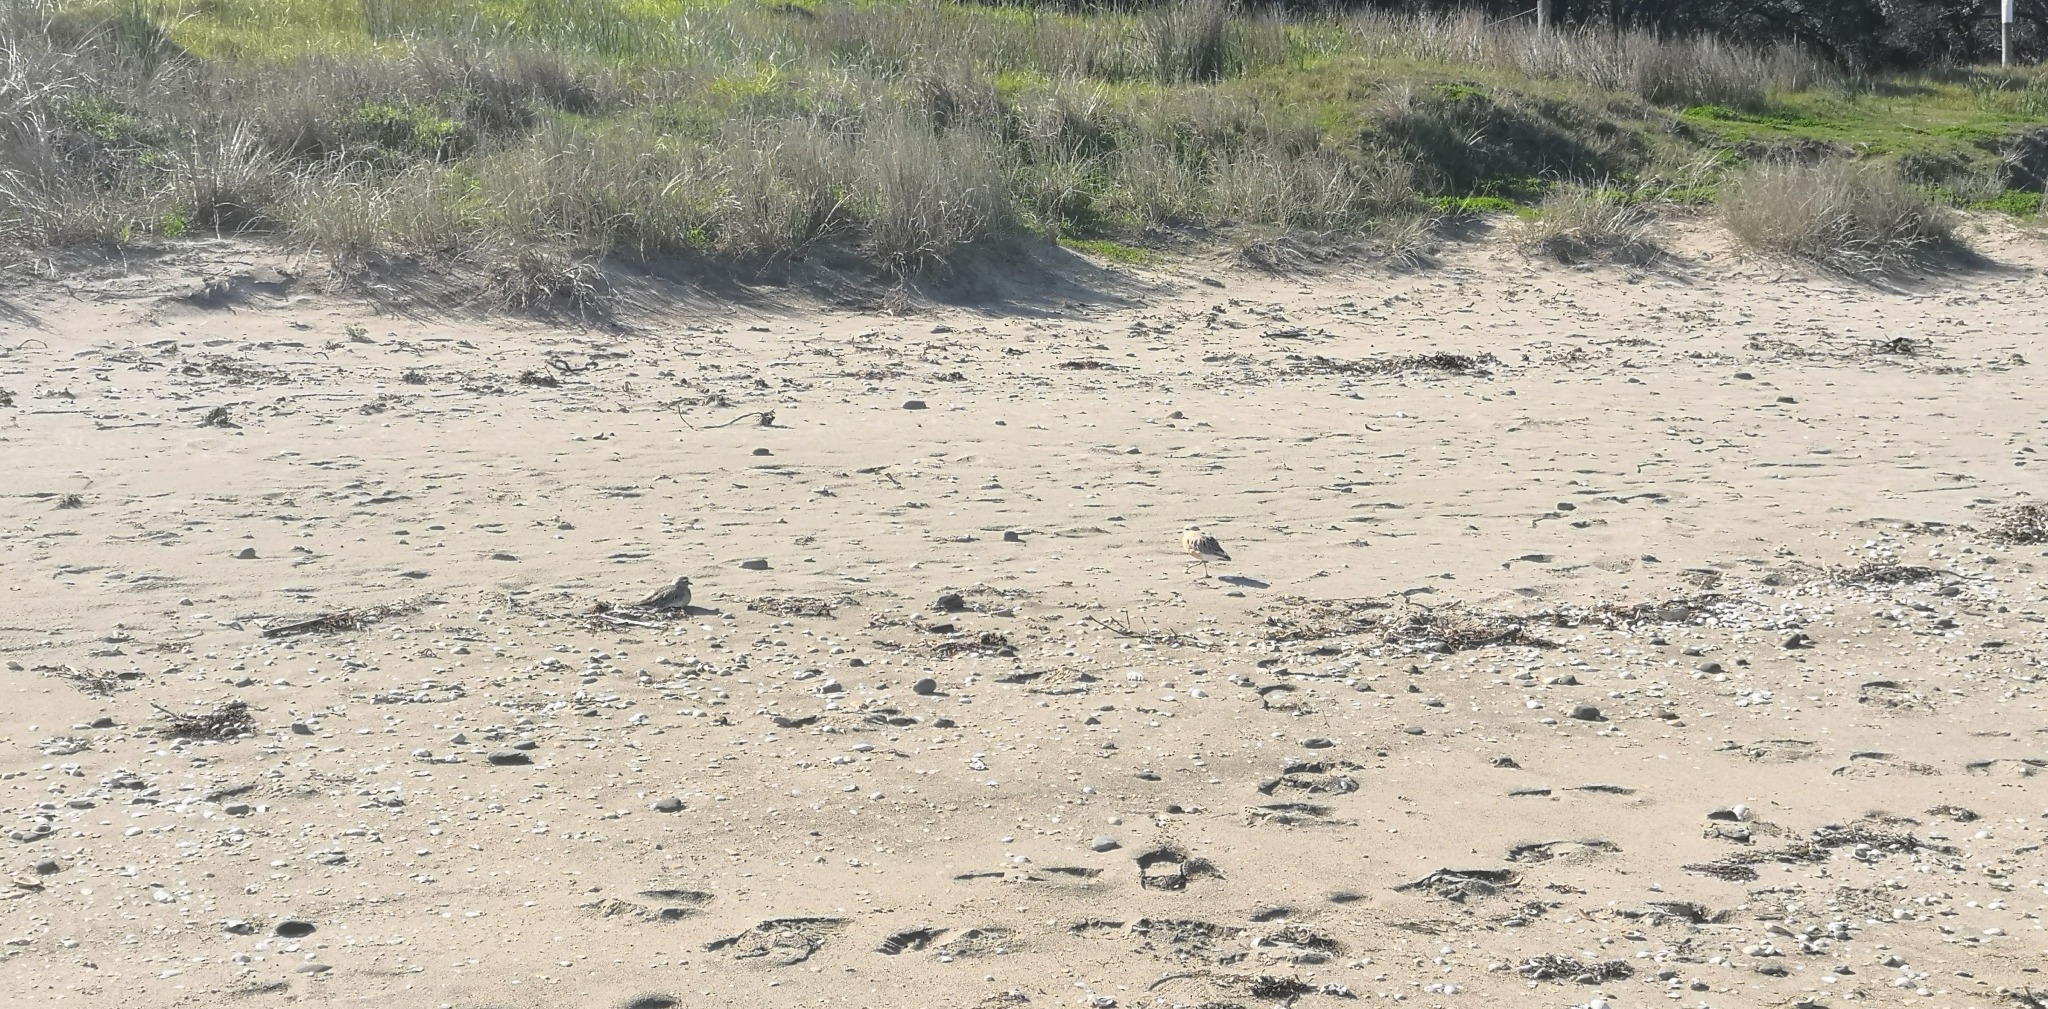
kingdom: Animalia
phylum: Chordata
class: Aves
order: Charadriiformes
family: Charadriidae
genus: Anarhynchus
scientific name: Anarhynchus
